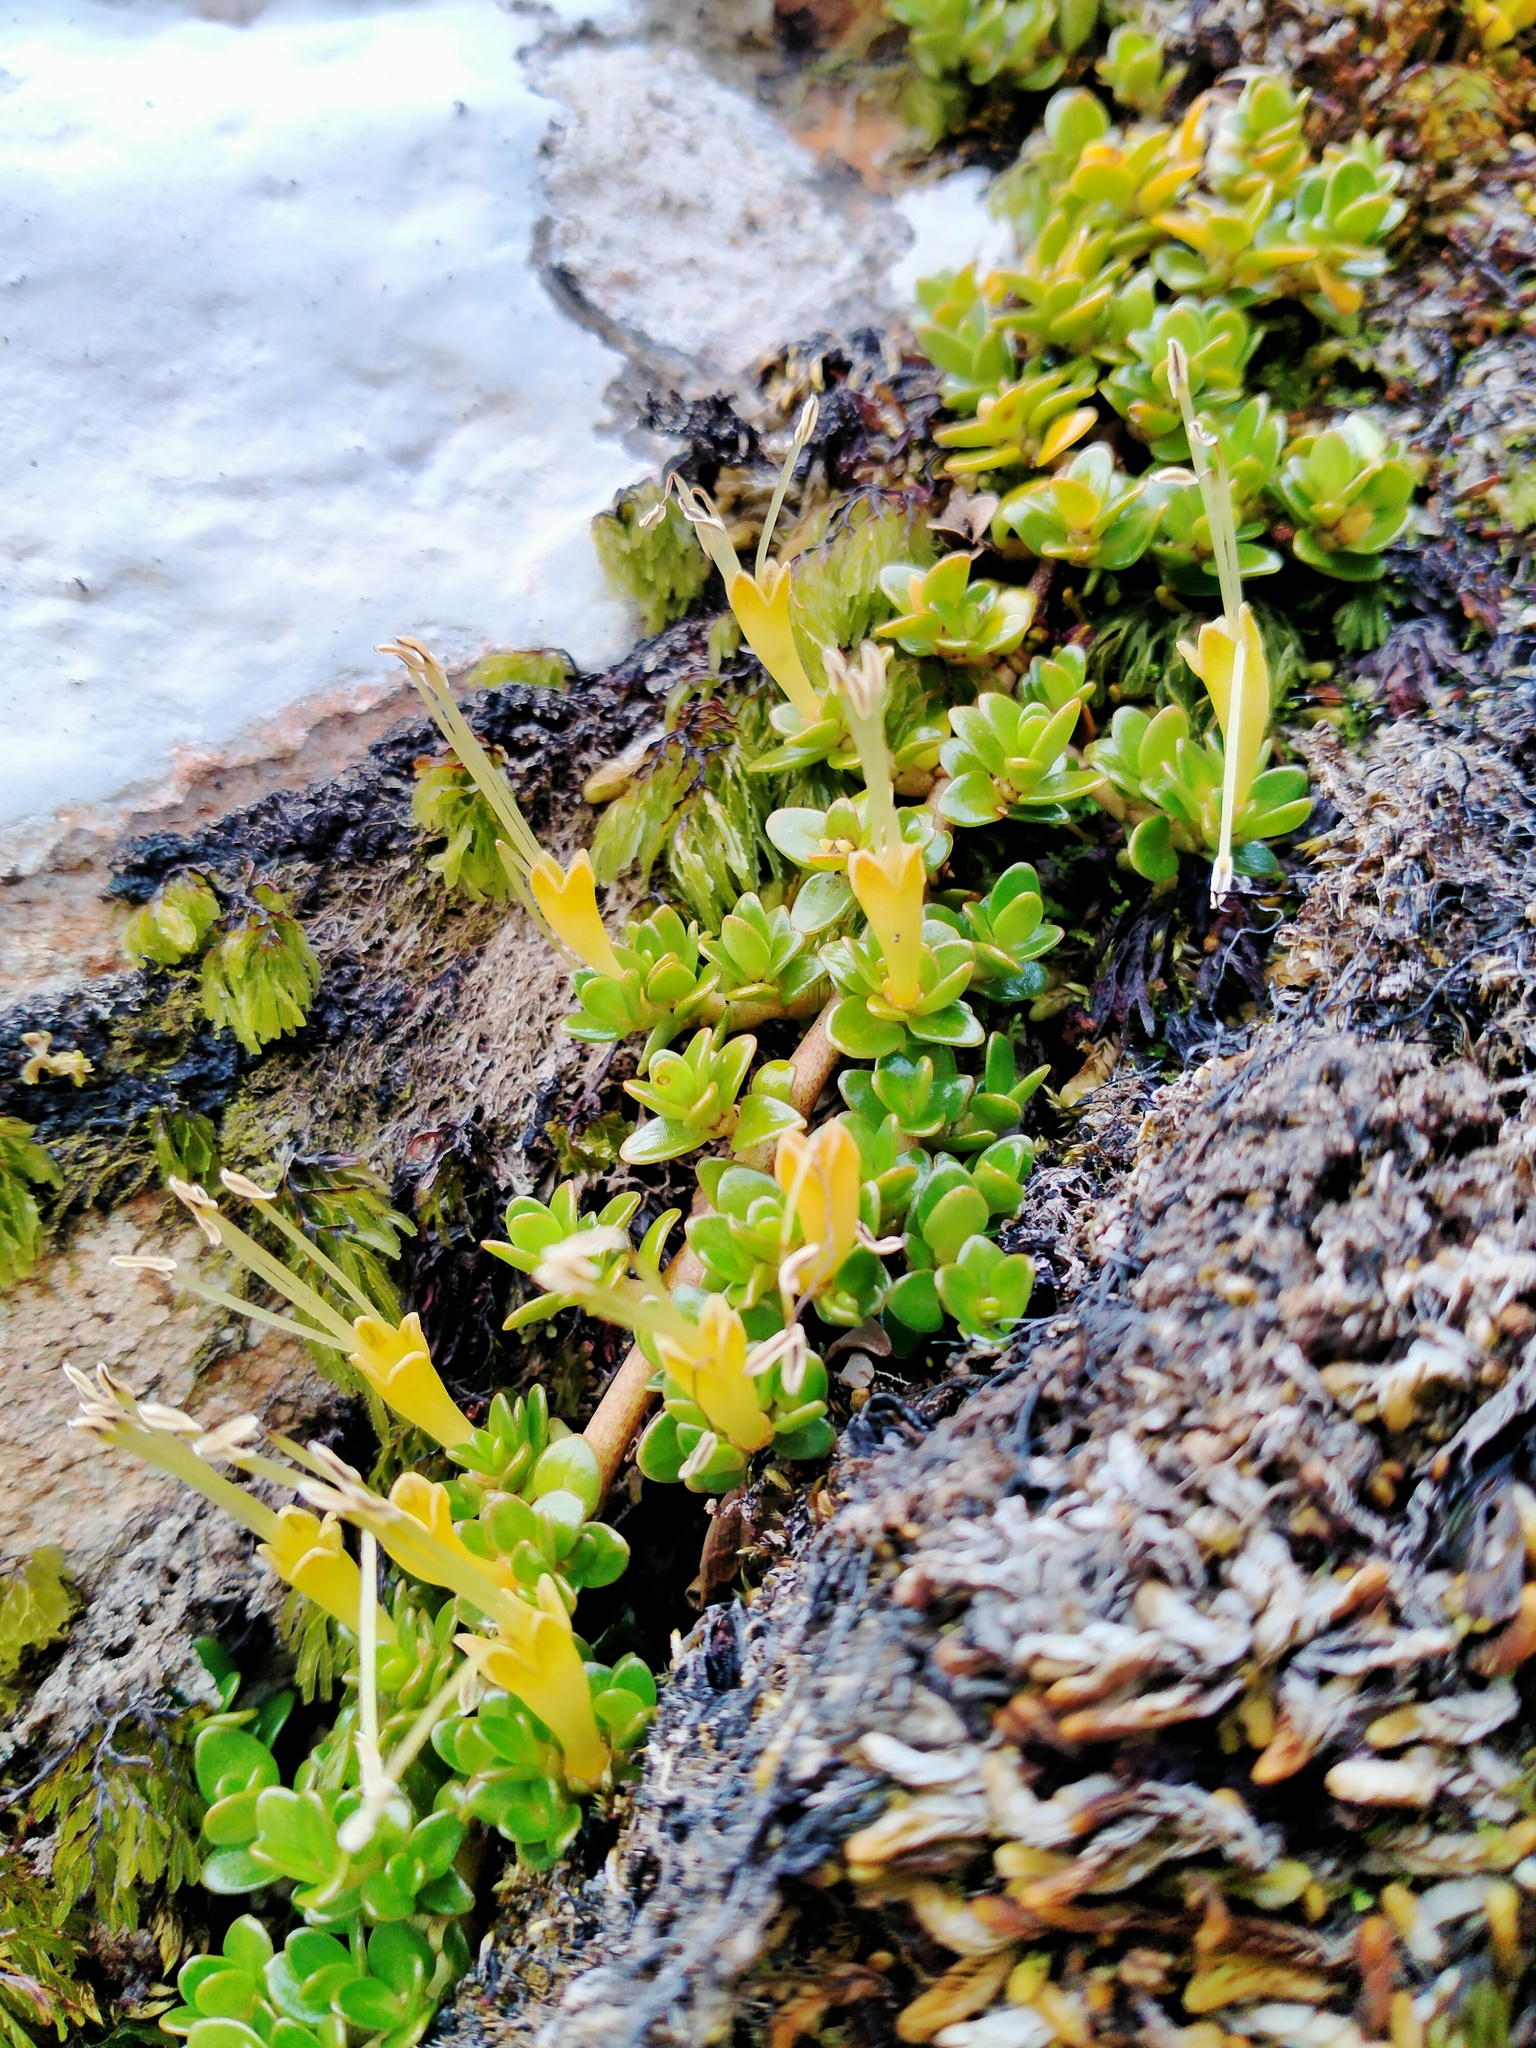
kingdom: Plantae
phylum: Tracheophyta
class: Magnoliopsida
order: Gentianales
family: Rubiaceae
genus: Coprosma
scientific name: Coprosma perpusilla
